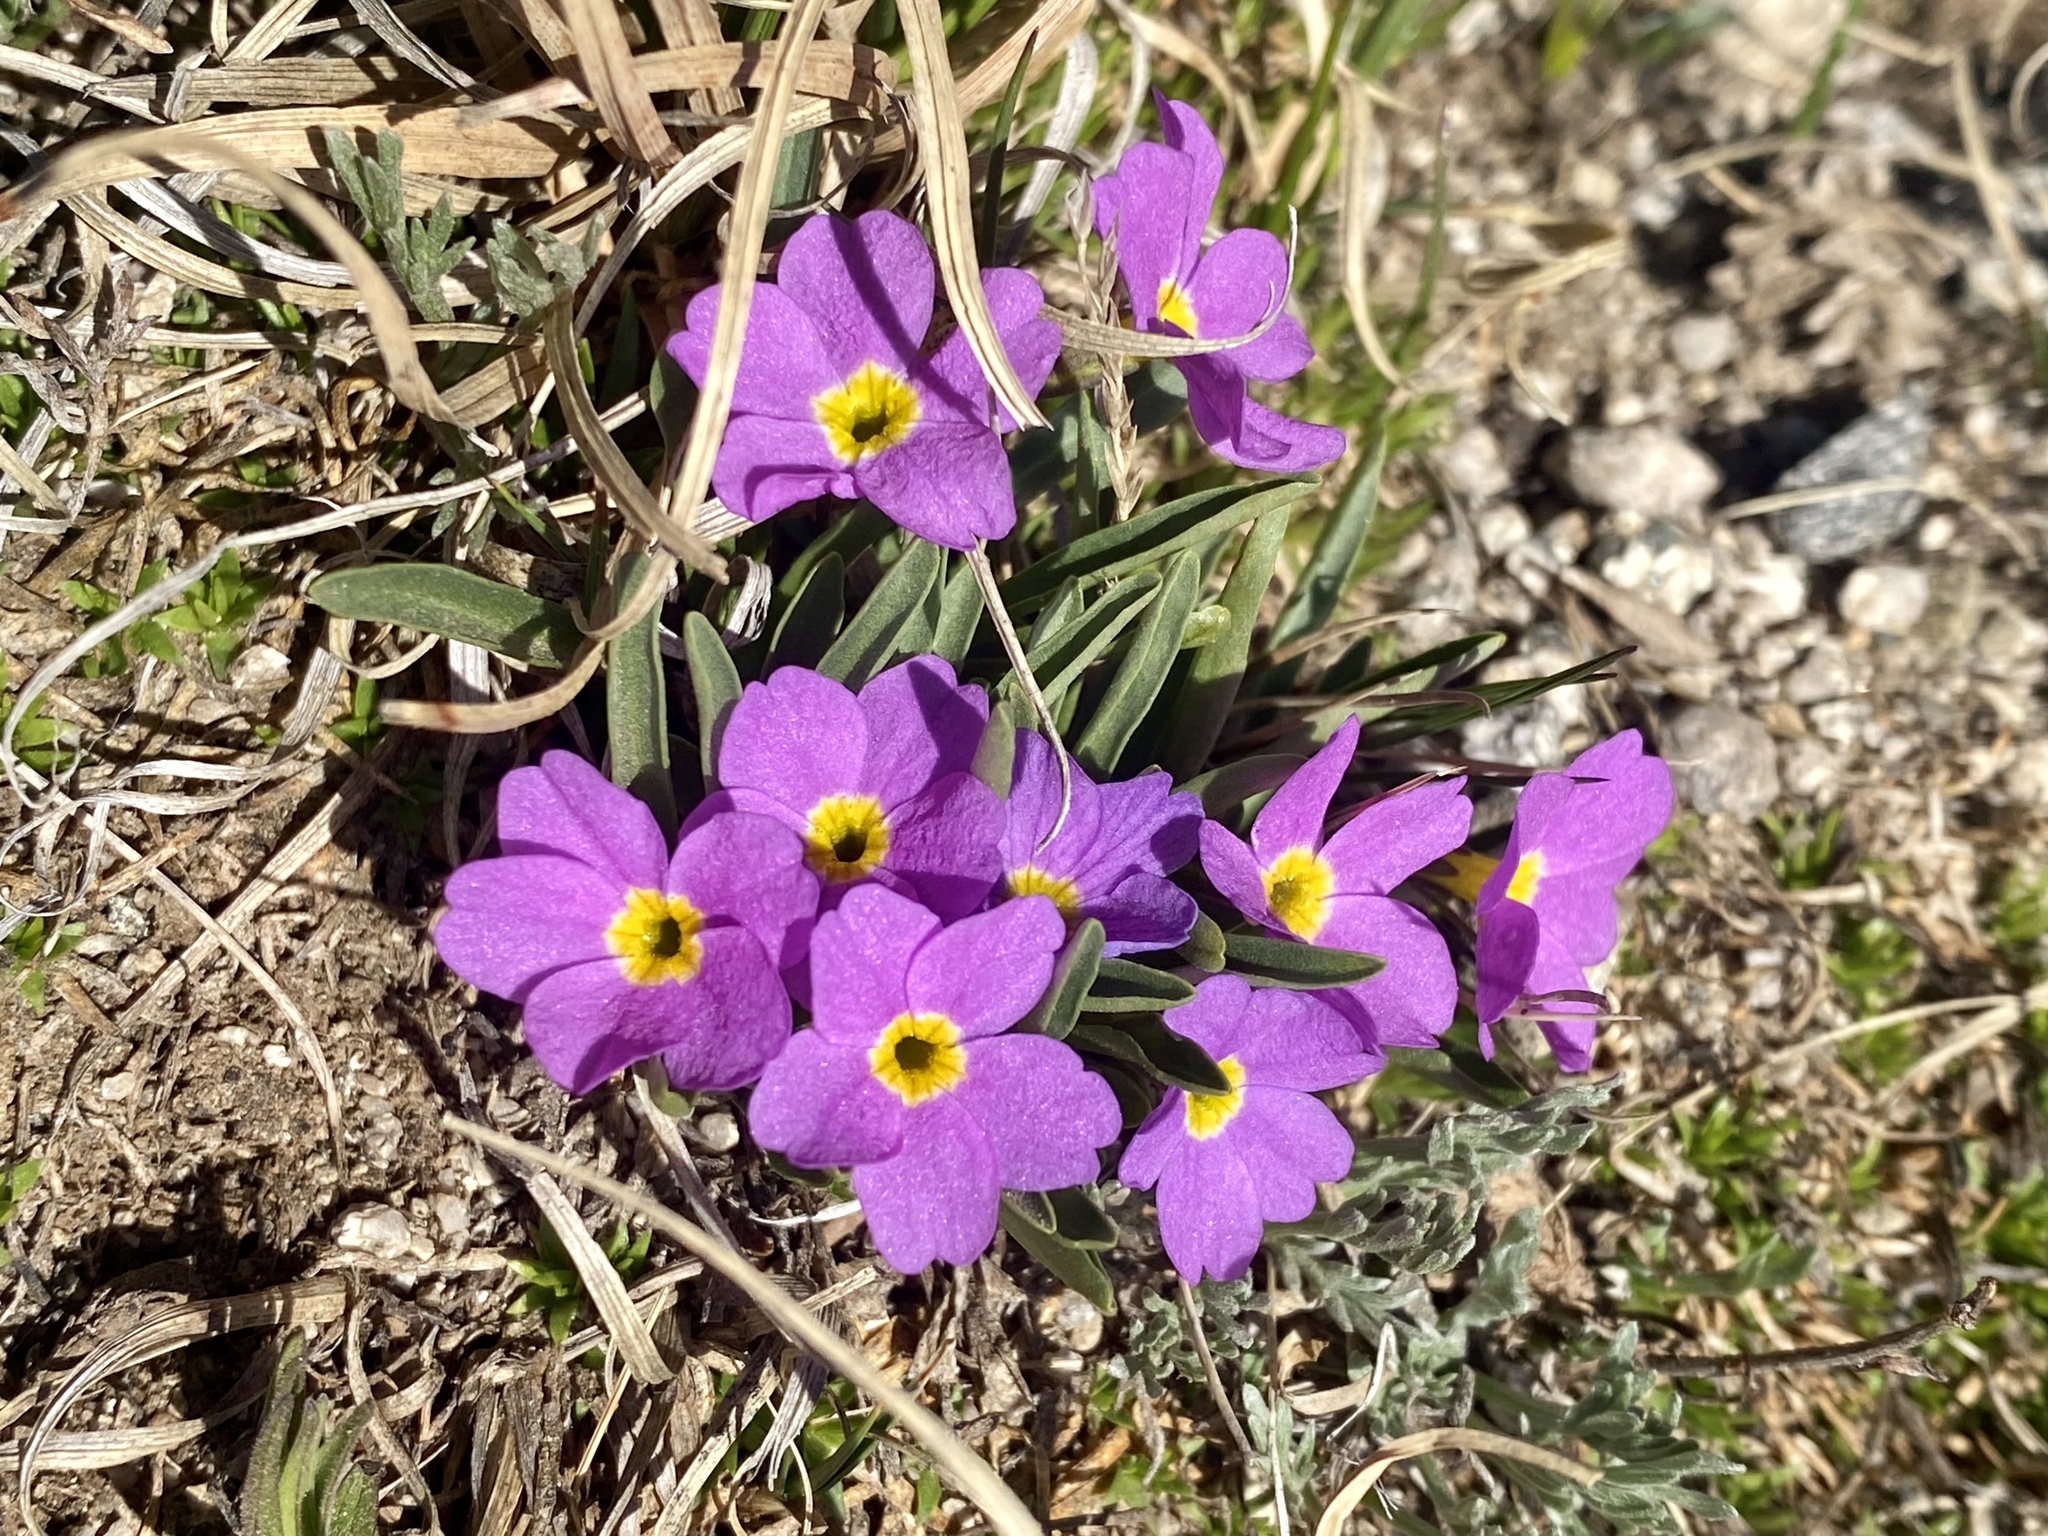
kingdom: Plantae
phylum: Tracheophyta
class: Magnoliopsida
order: Ericales
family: Primulaceae
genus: Primula
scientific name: Primula angustifolia
